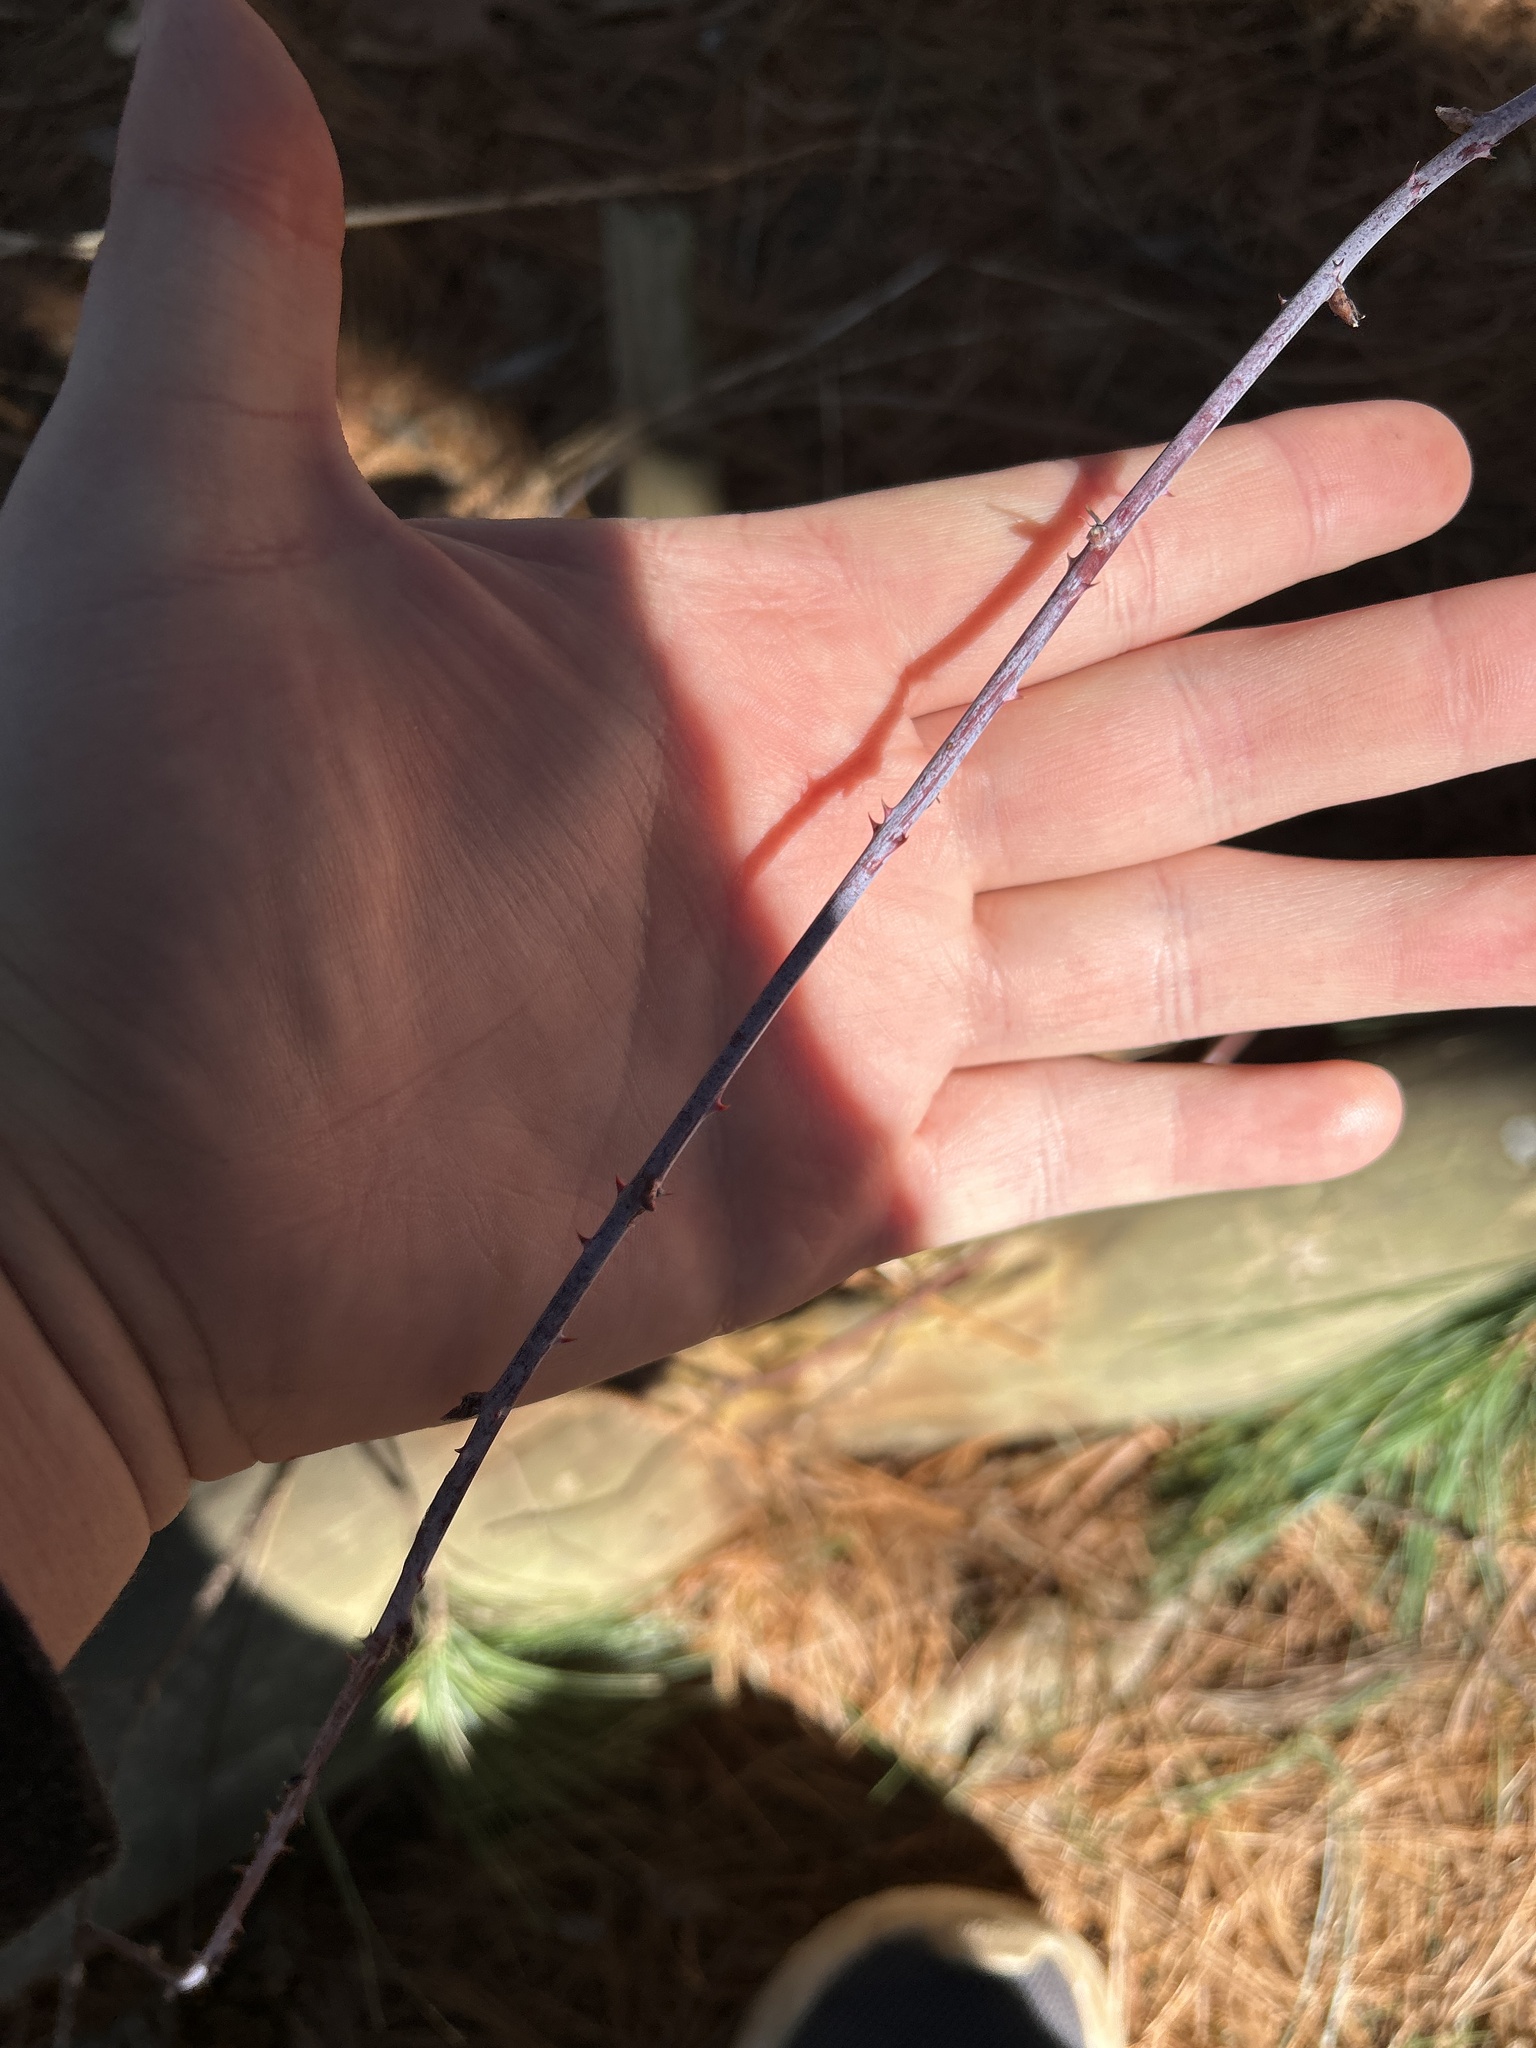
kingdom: Plantae
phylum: Tracheophyta
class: Magnoliopsida
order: Rosales
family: Rosaceae
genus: Rubus
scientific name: Rubus occidentalis
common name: Black raspberry
